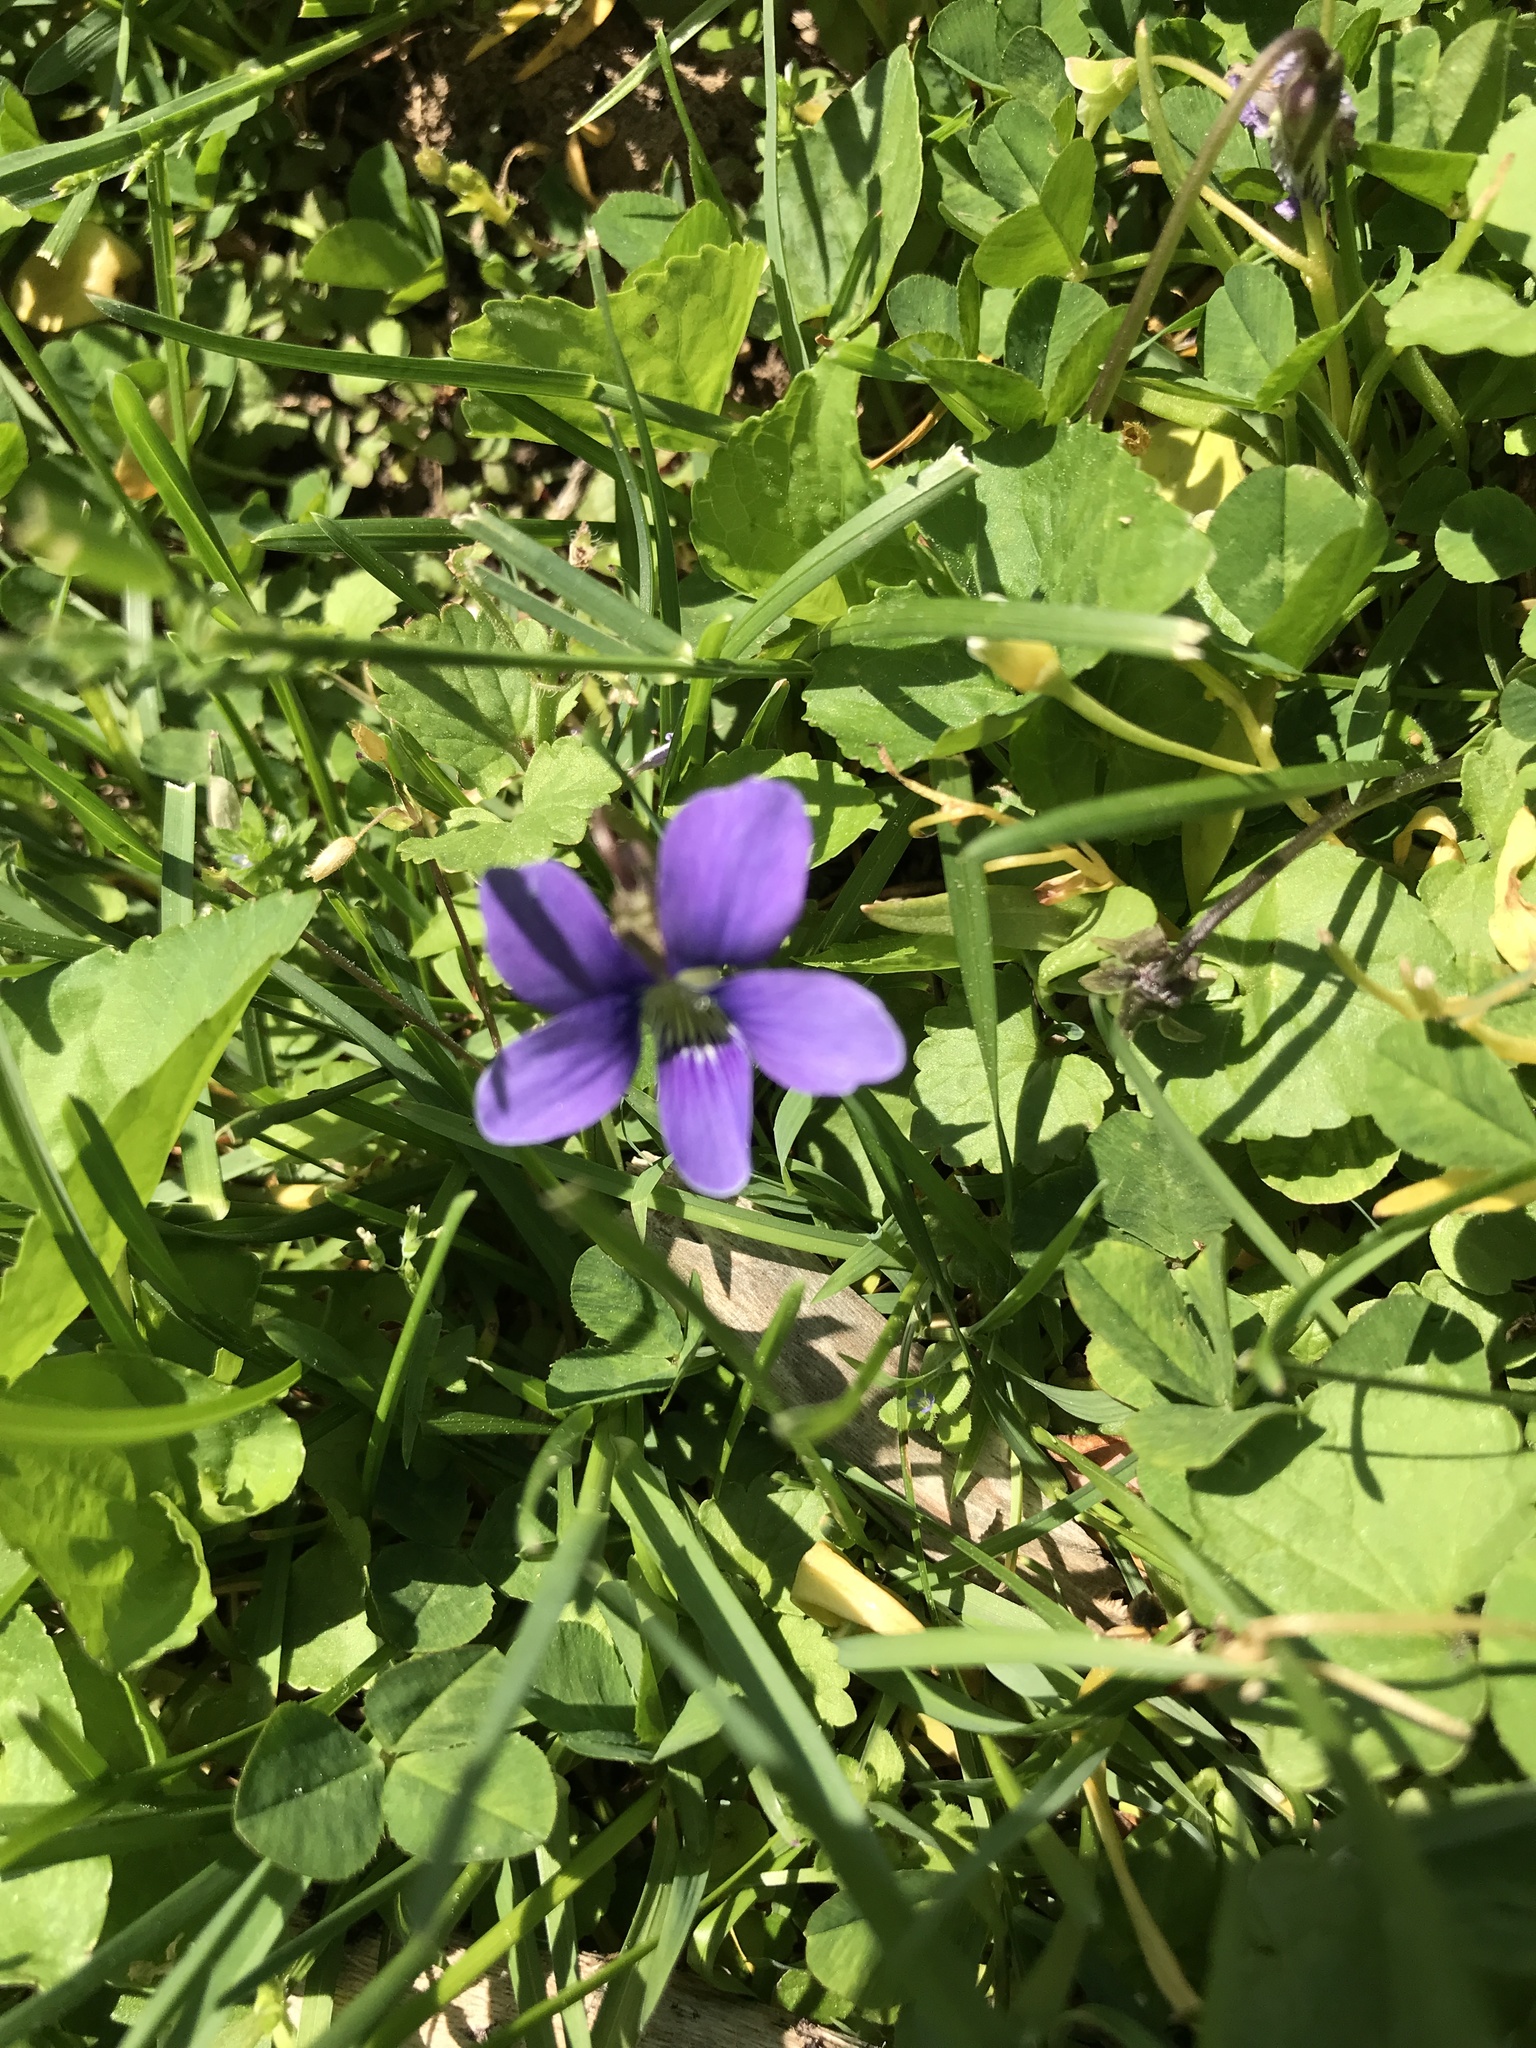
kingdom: Plantae
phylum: Tracheophyta
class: Magnoliopsida
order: Malpighiales
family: Violaceae
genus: Viola
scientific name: Viola sororia
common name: Dooryard violet
